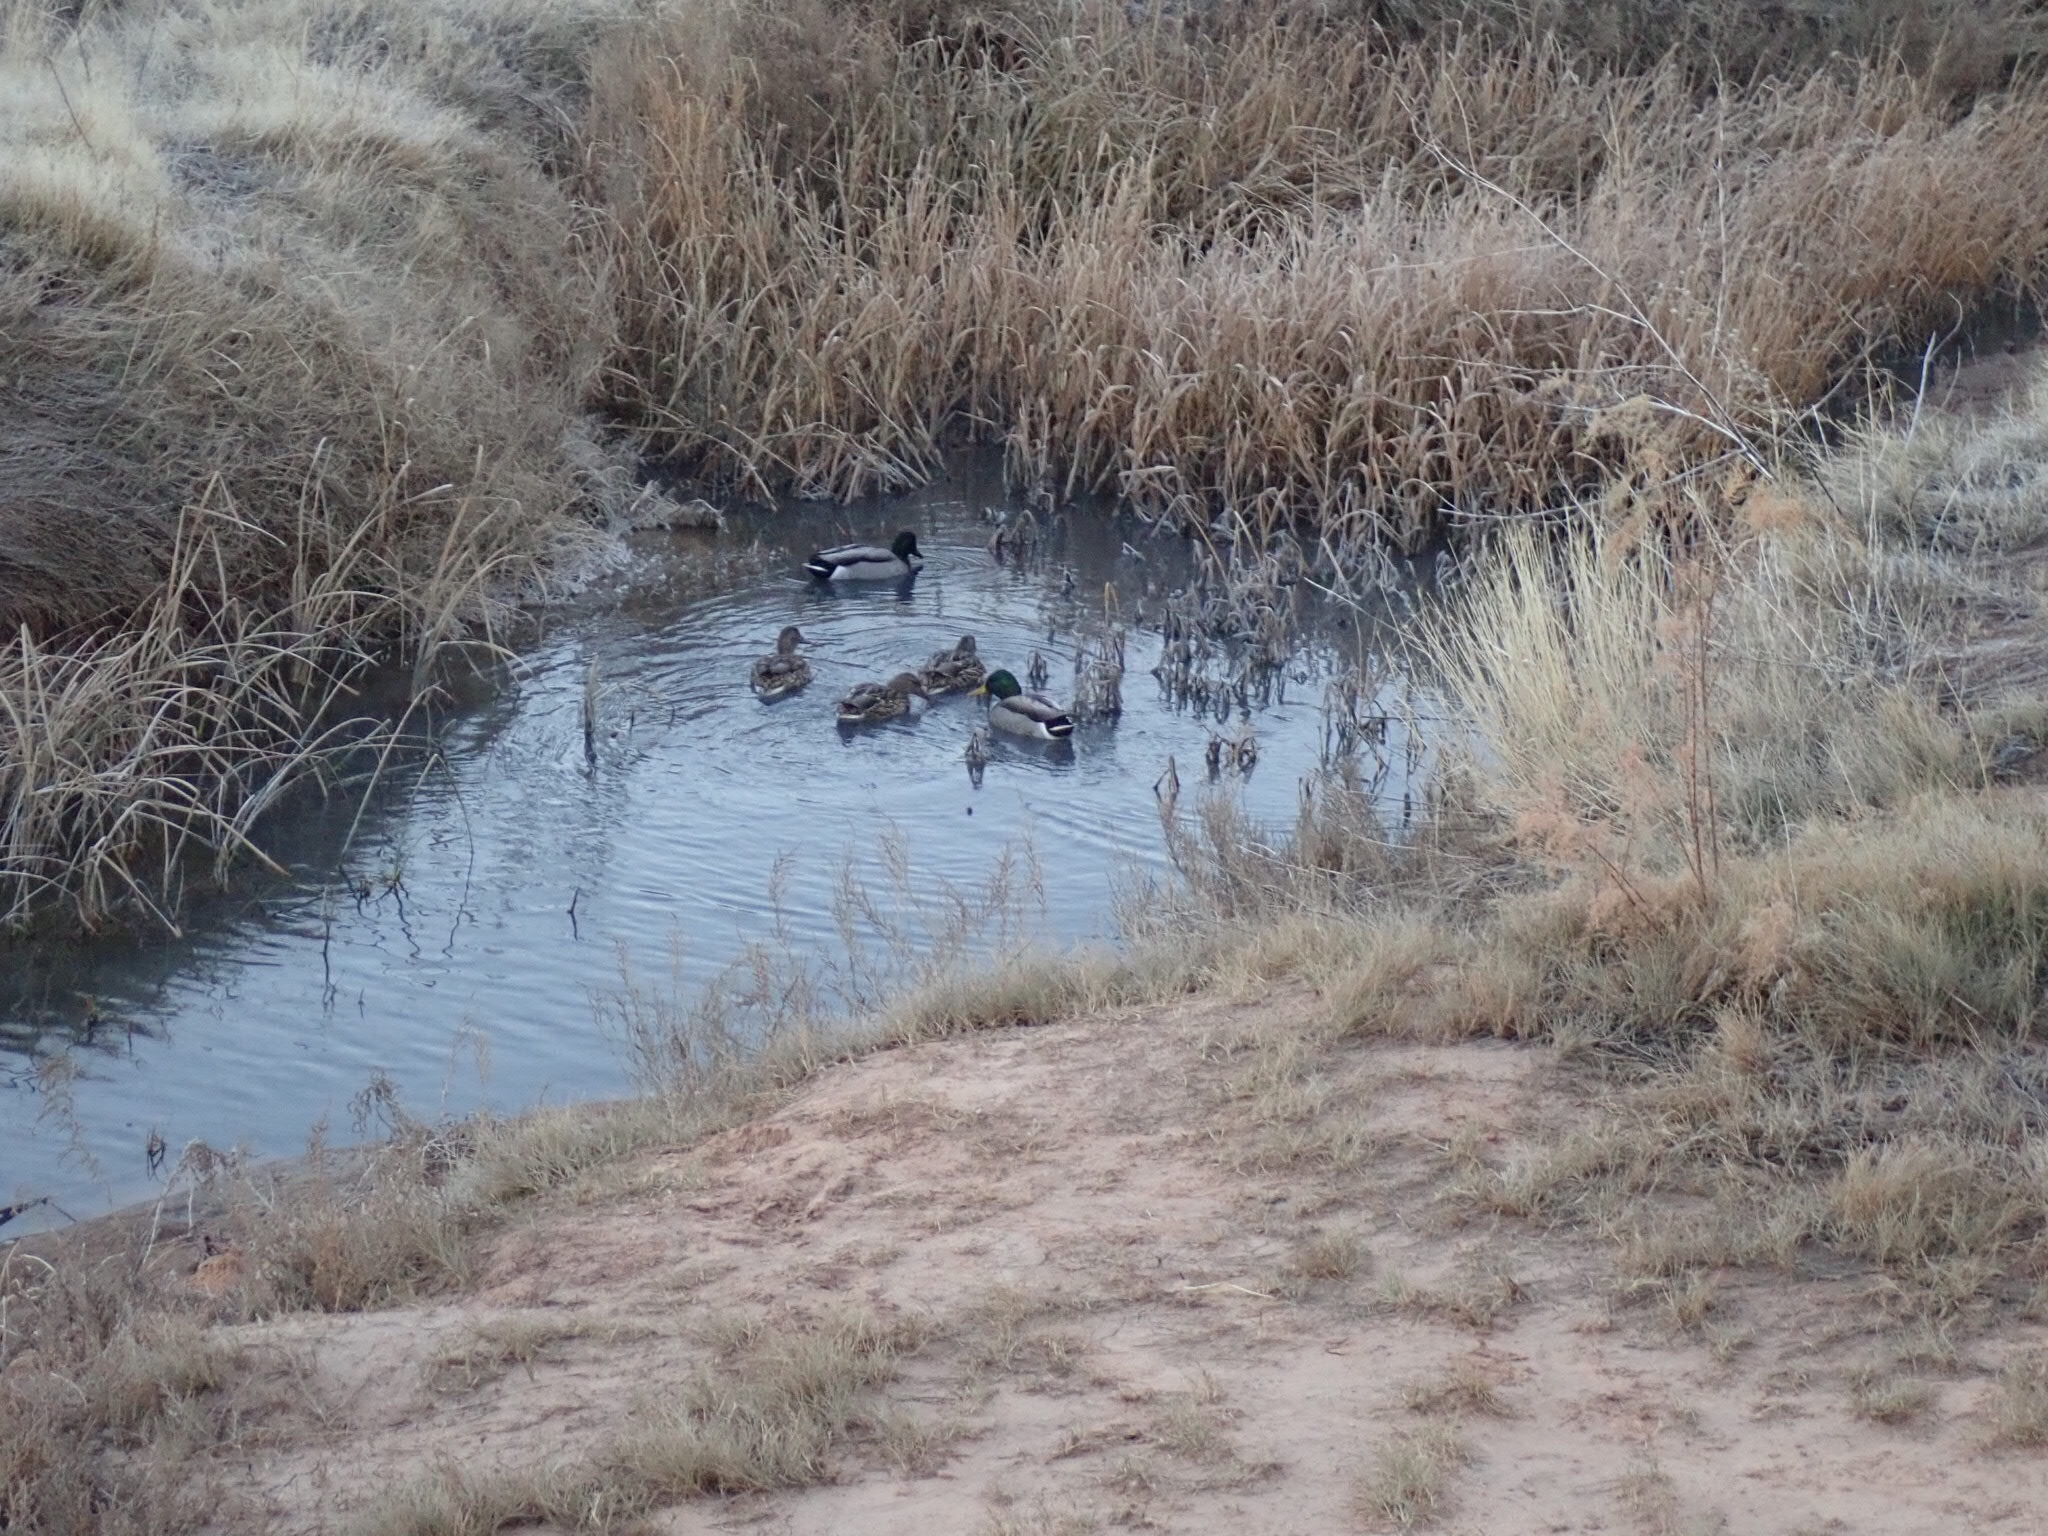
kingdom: Animalia
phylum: Chordata
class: Aves
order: Anseriformes
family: Anatidae
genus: Anas
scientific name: Anas platyrhynchos
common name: Mallard
